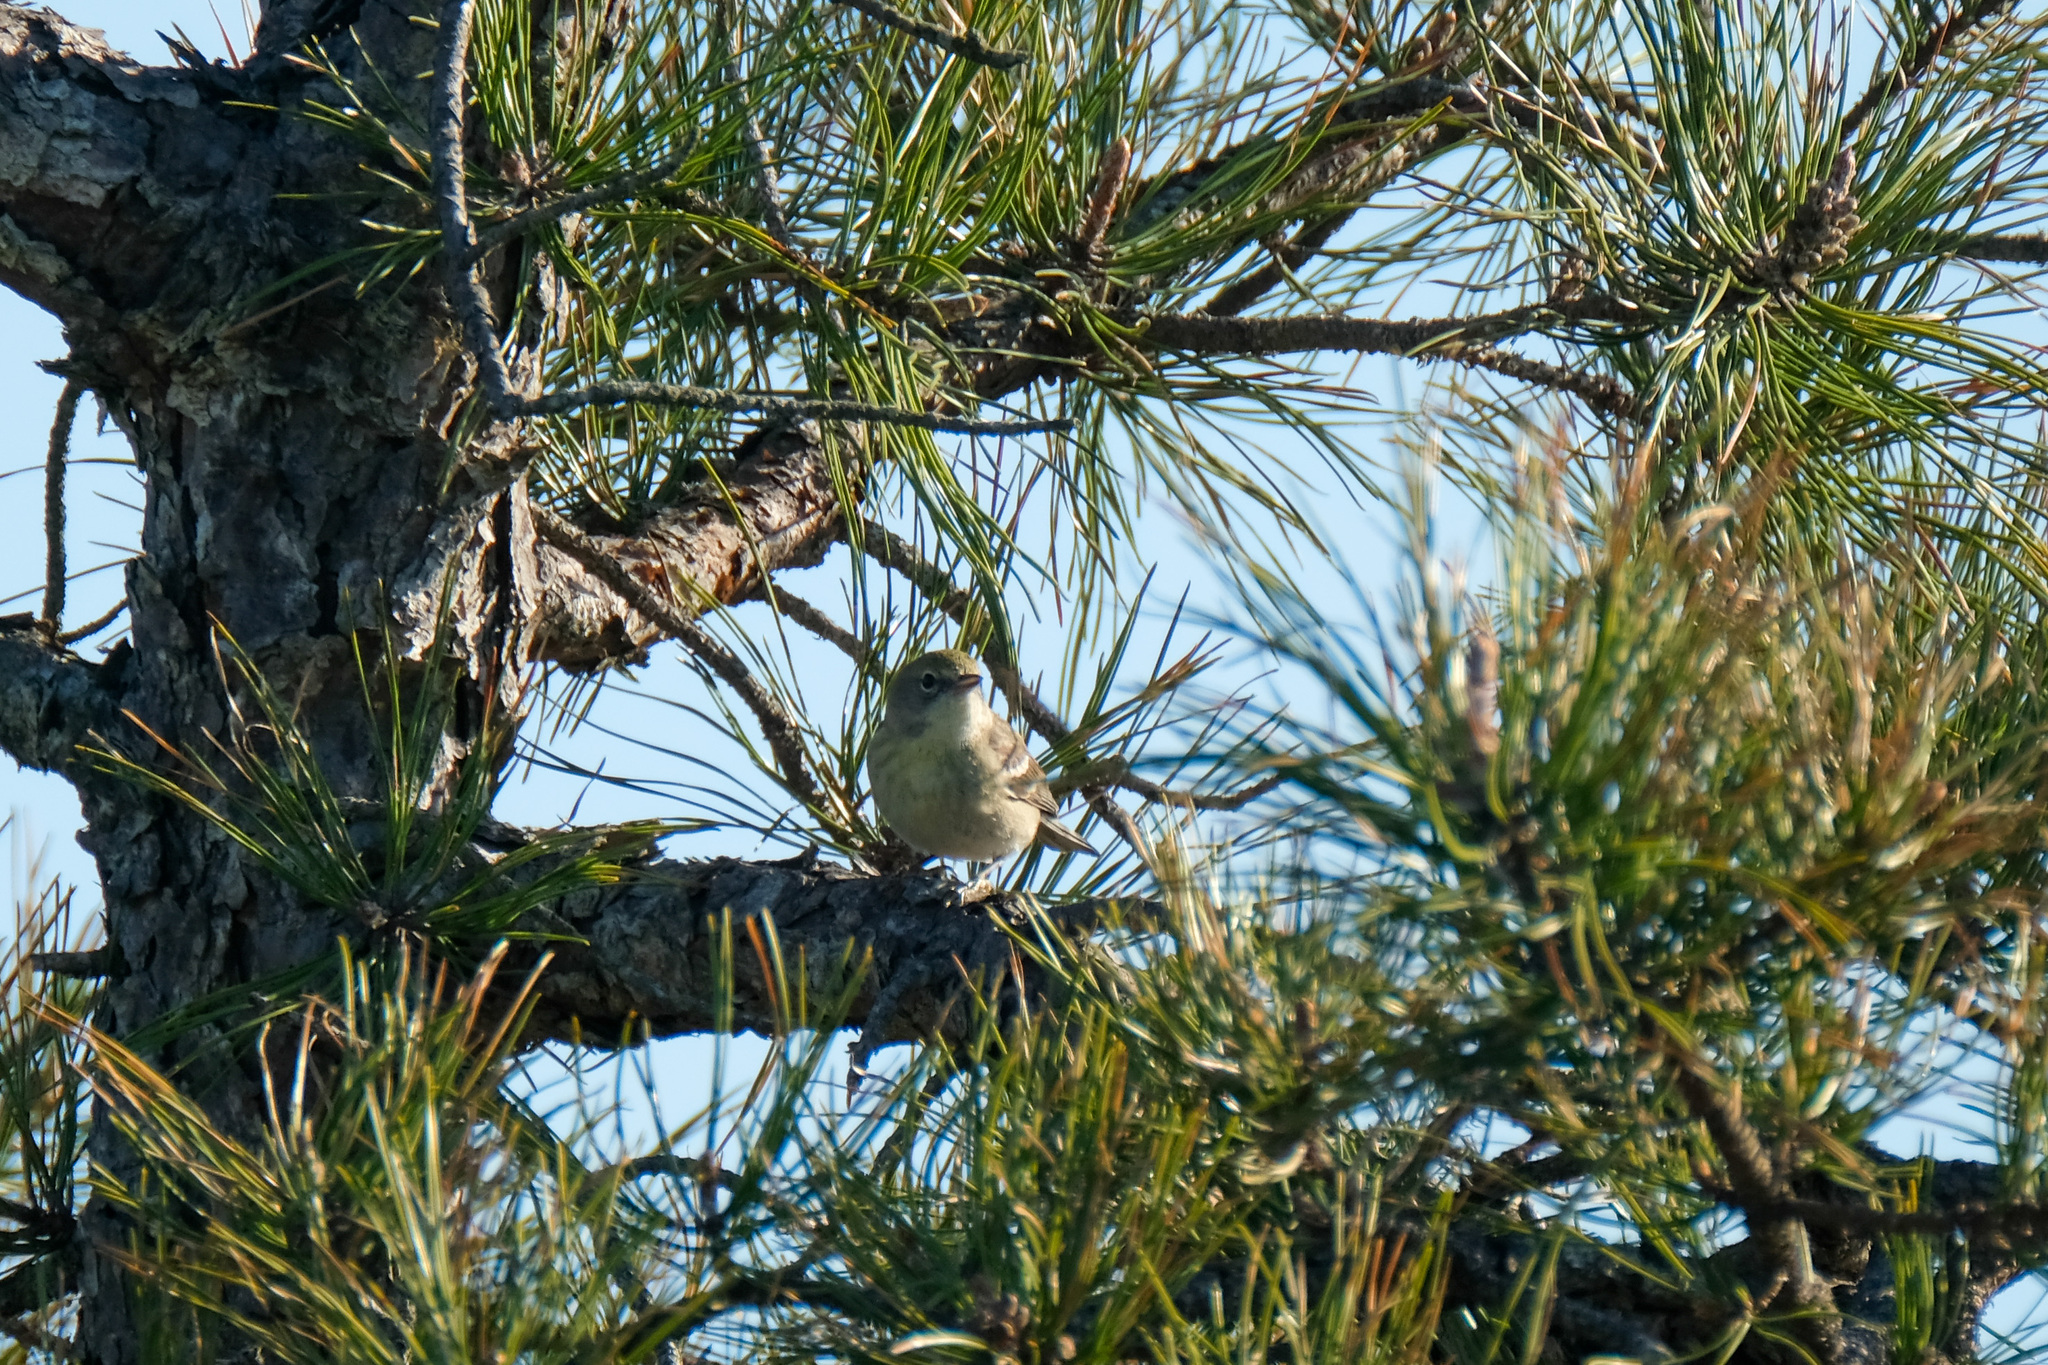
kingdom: Animalia
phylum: Chordata
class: Aves
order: Passeriformes
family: Parulidae
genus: Setophaga
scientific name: Setophaga pinus
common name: Pine warbler
